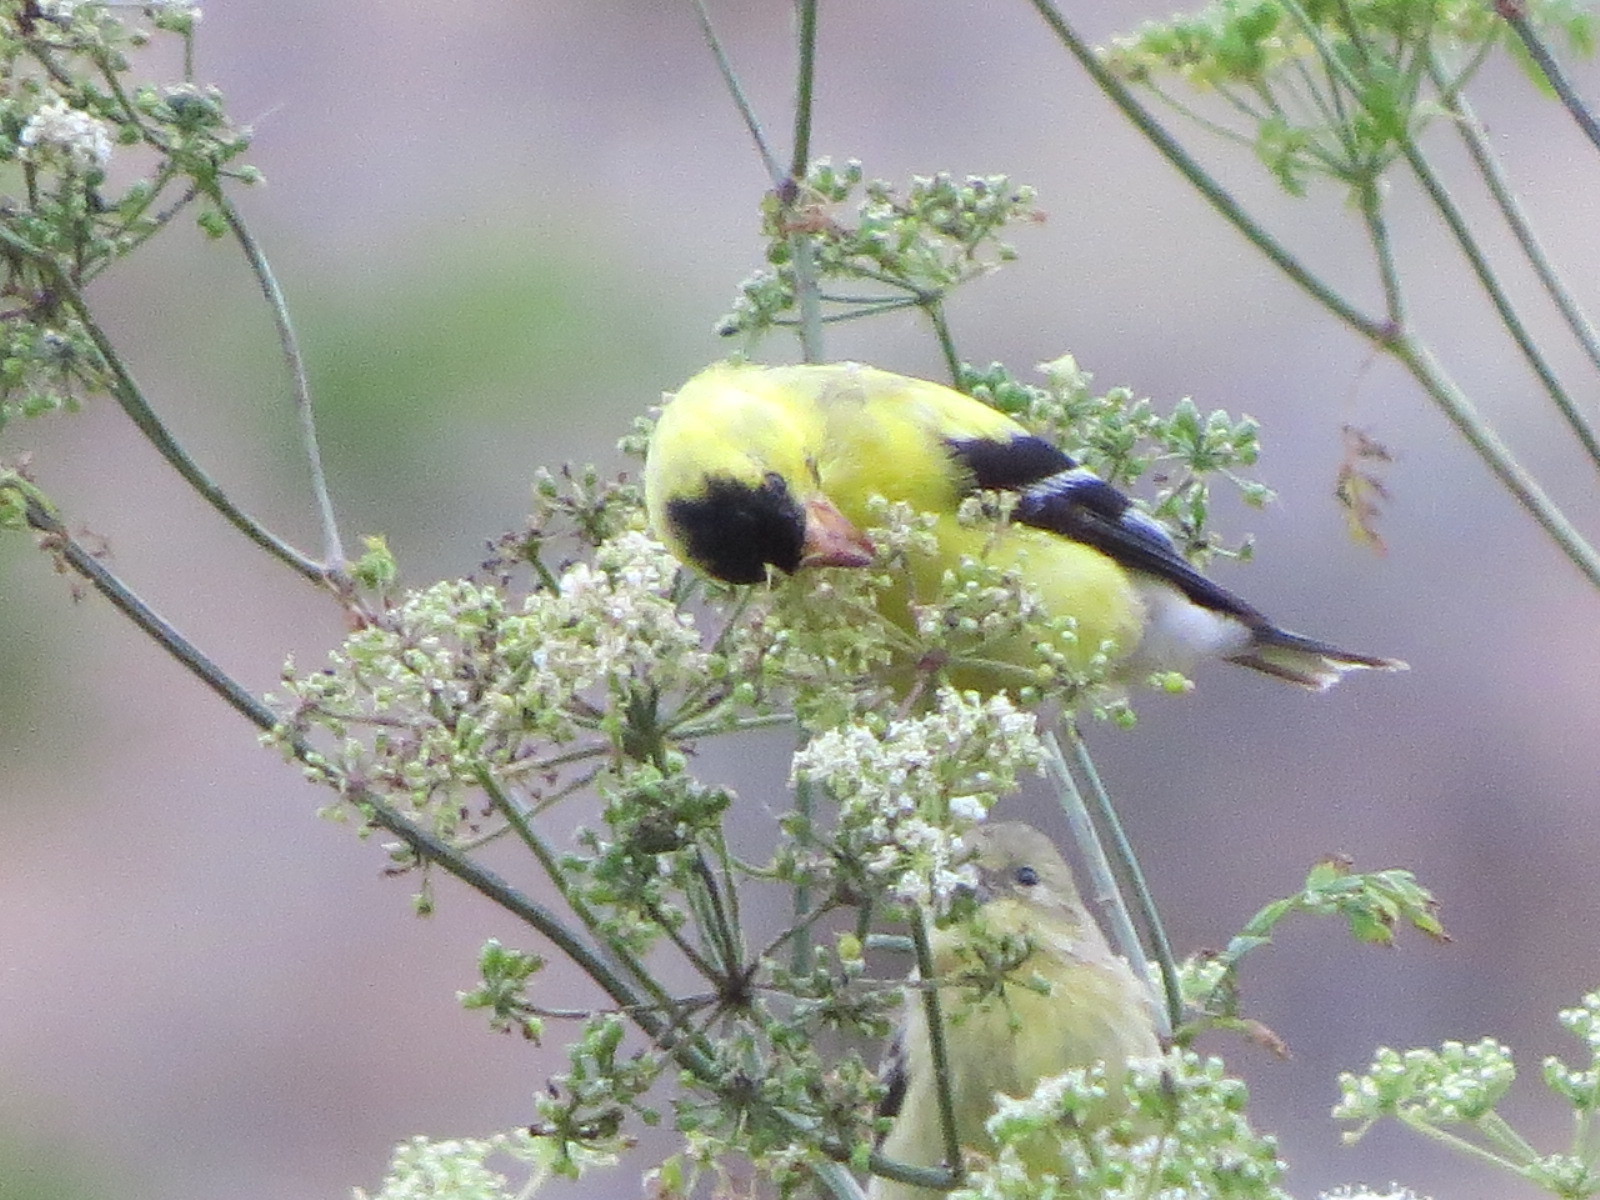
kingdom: Animalia
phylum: Chordata
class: Aves
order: Passeriformes
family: Fringillidae
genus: Spinus
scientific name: Spinus tristis
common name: American goldfinch
